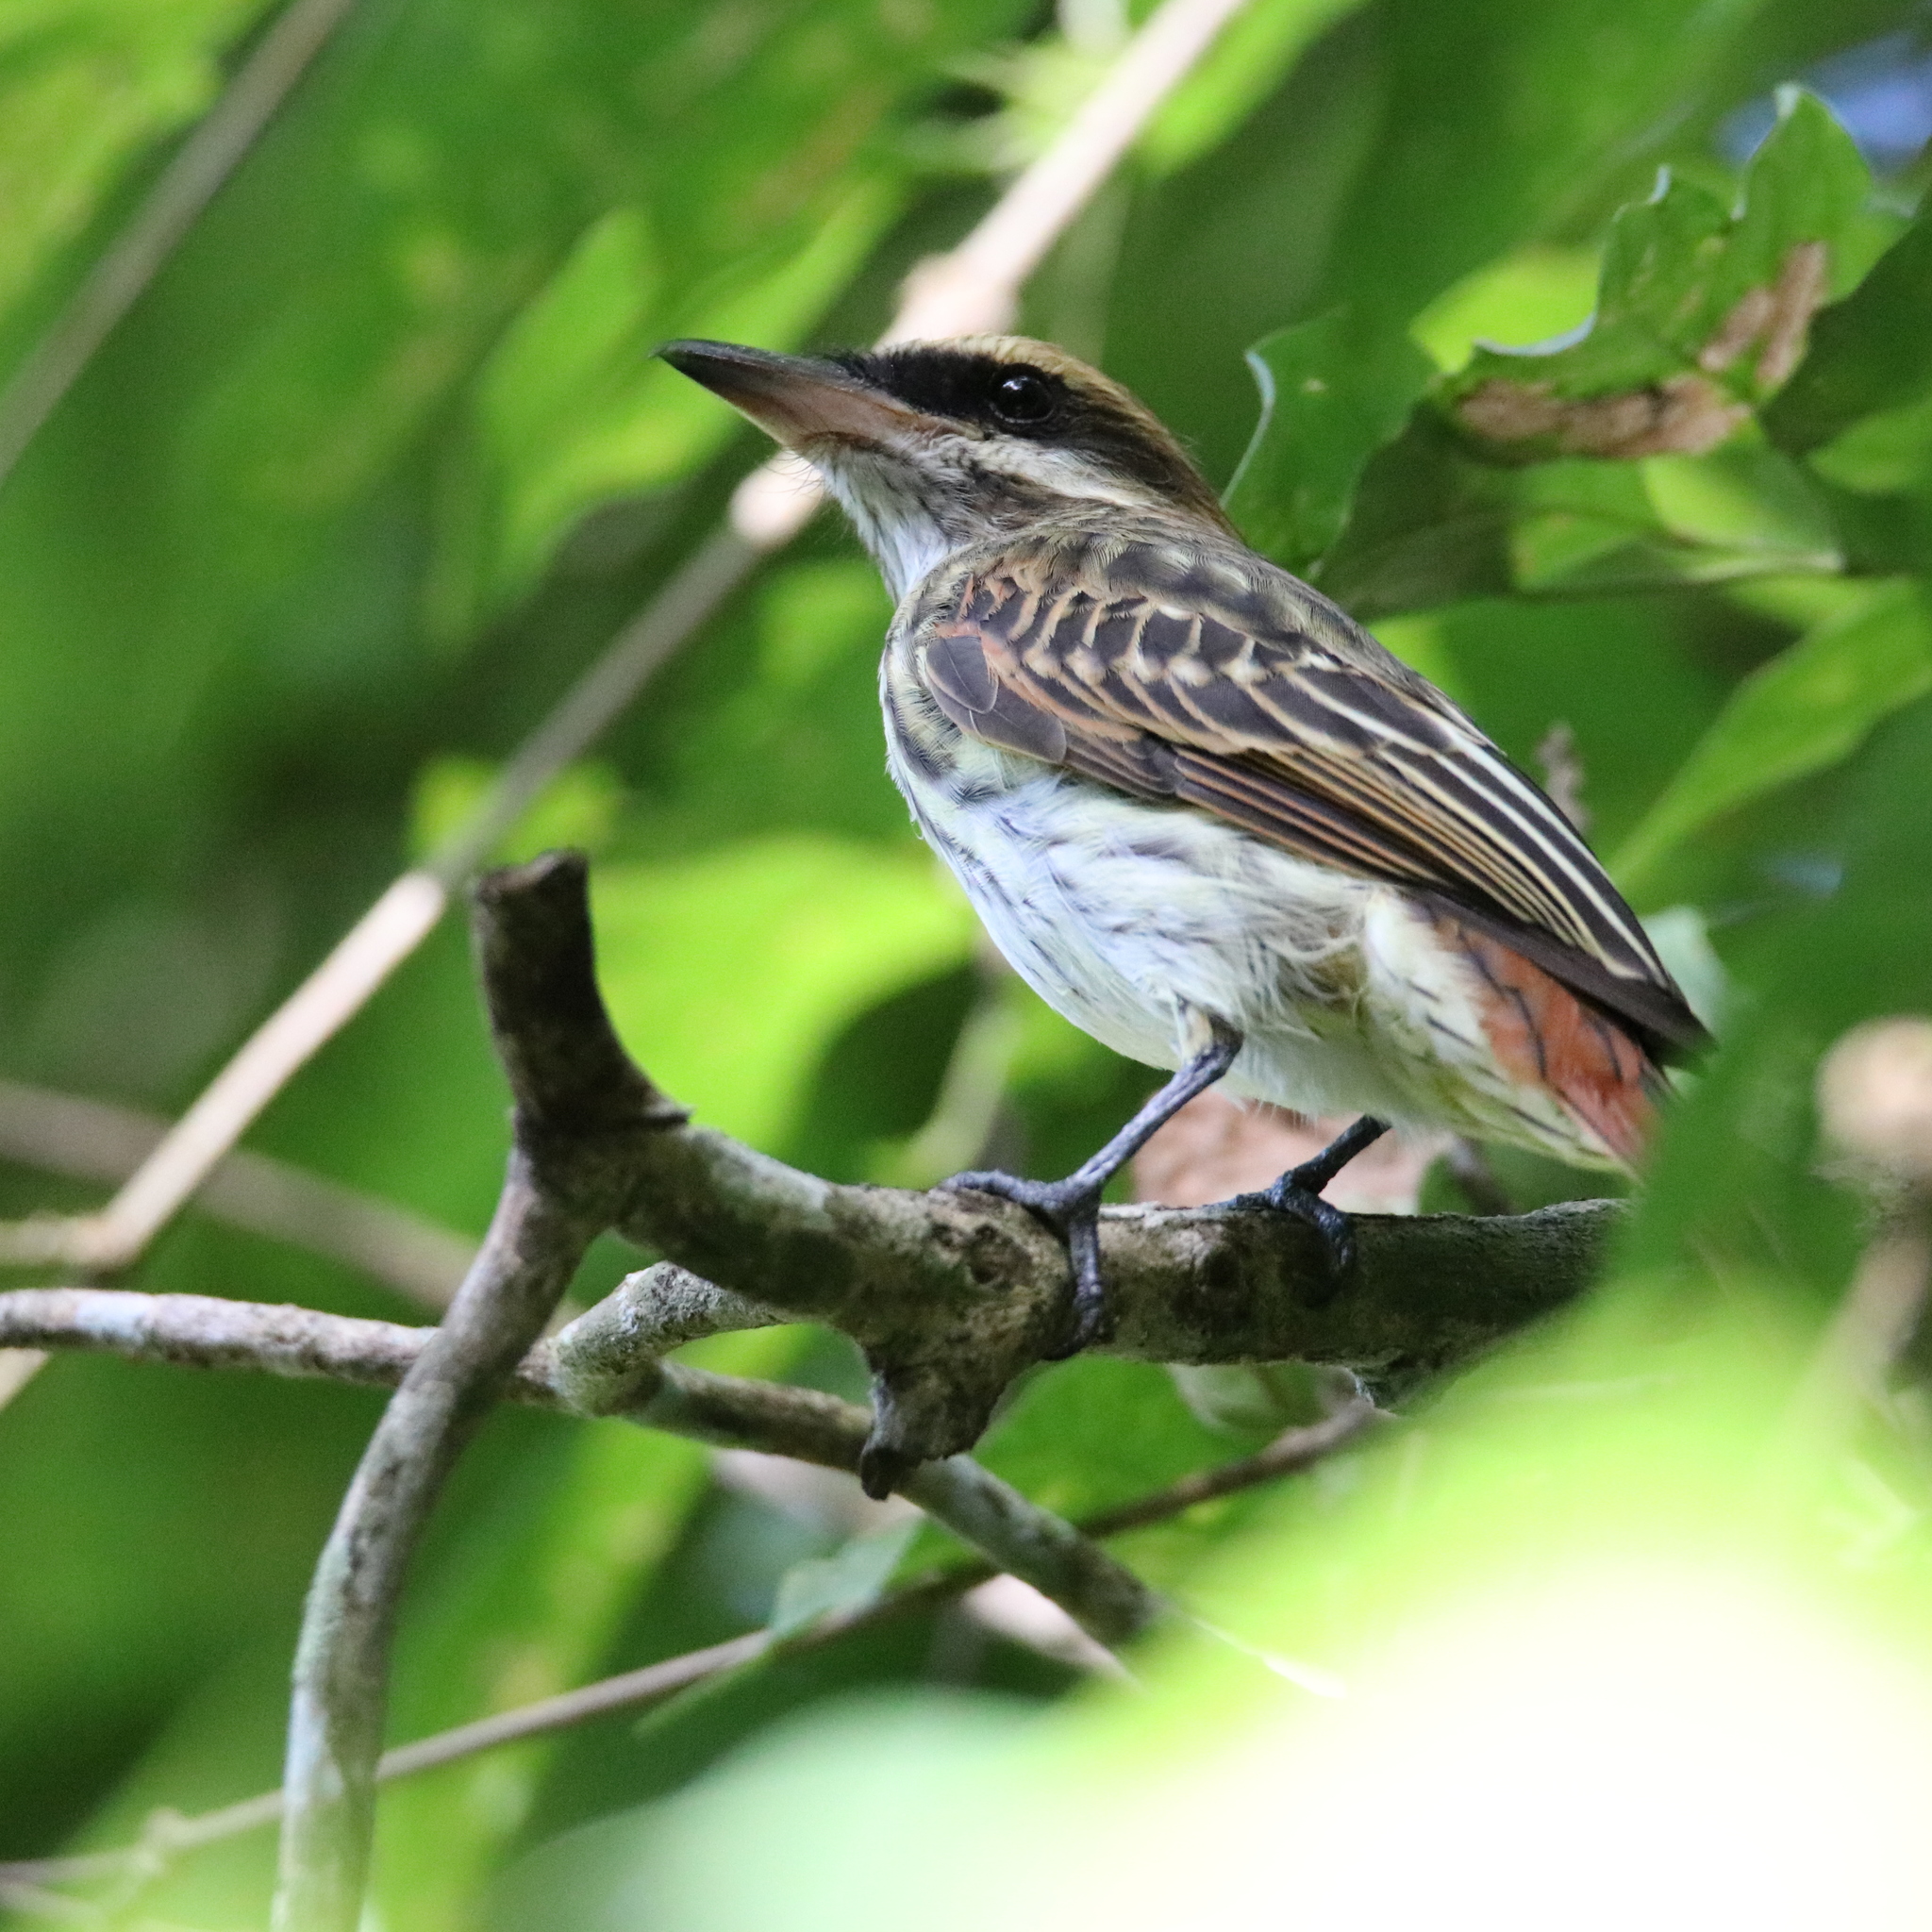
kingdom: Animalia
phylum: Chordata
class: Aves
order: Passeriformes
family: Tyrannidae
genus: Myiodynastes
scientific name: Myiodynastes maculatus
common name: Streaked flycatcher
